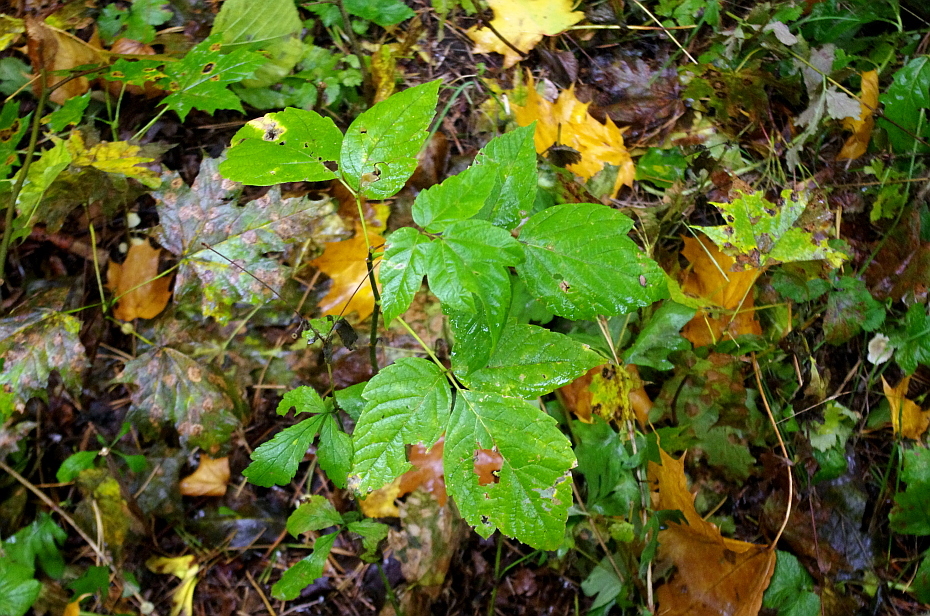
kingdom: Plantae
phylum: Tracheophyta
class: Magnoliopsida
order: Sapindales
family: Sapindaceae
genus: Acer
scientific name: Acer negundo
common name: Ashleaf maple
